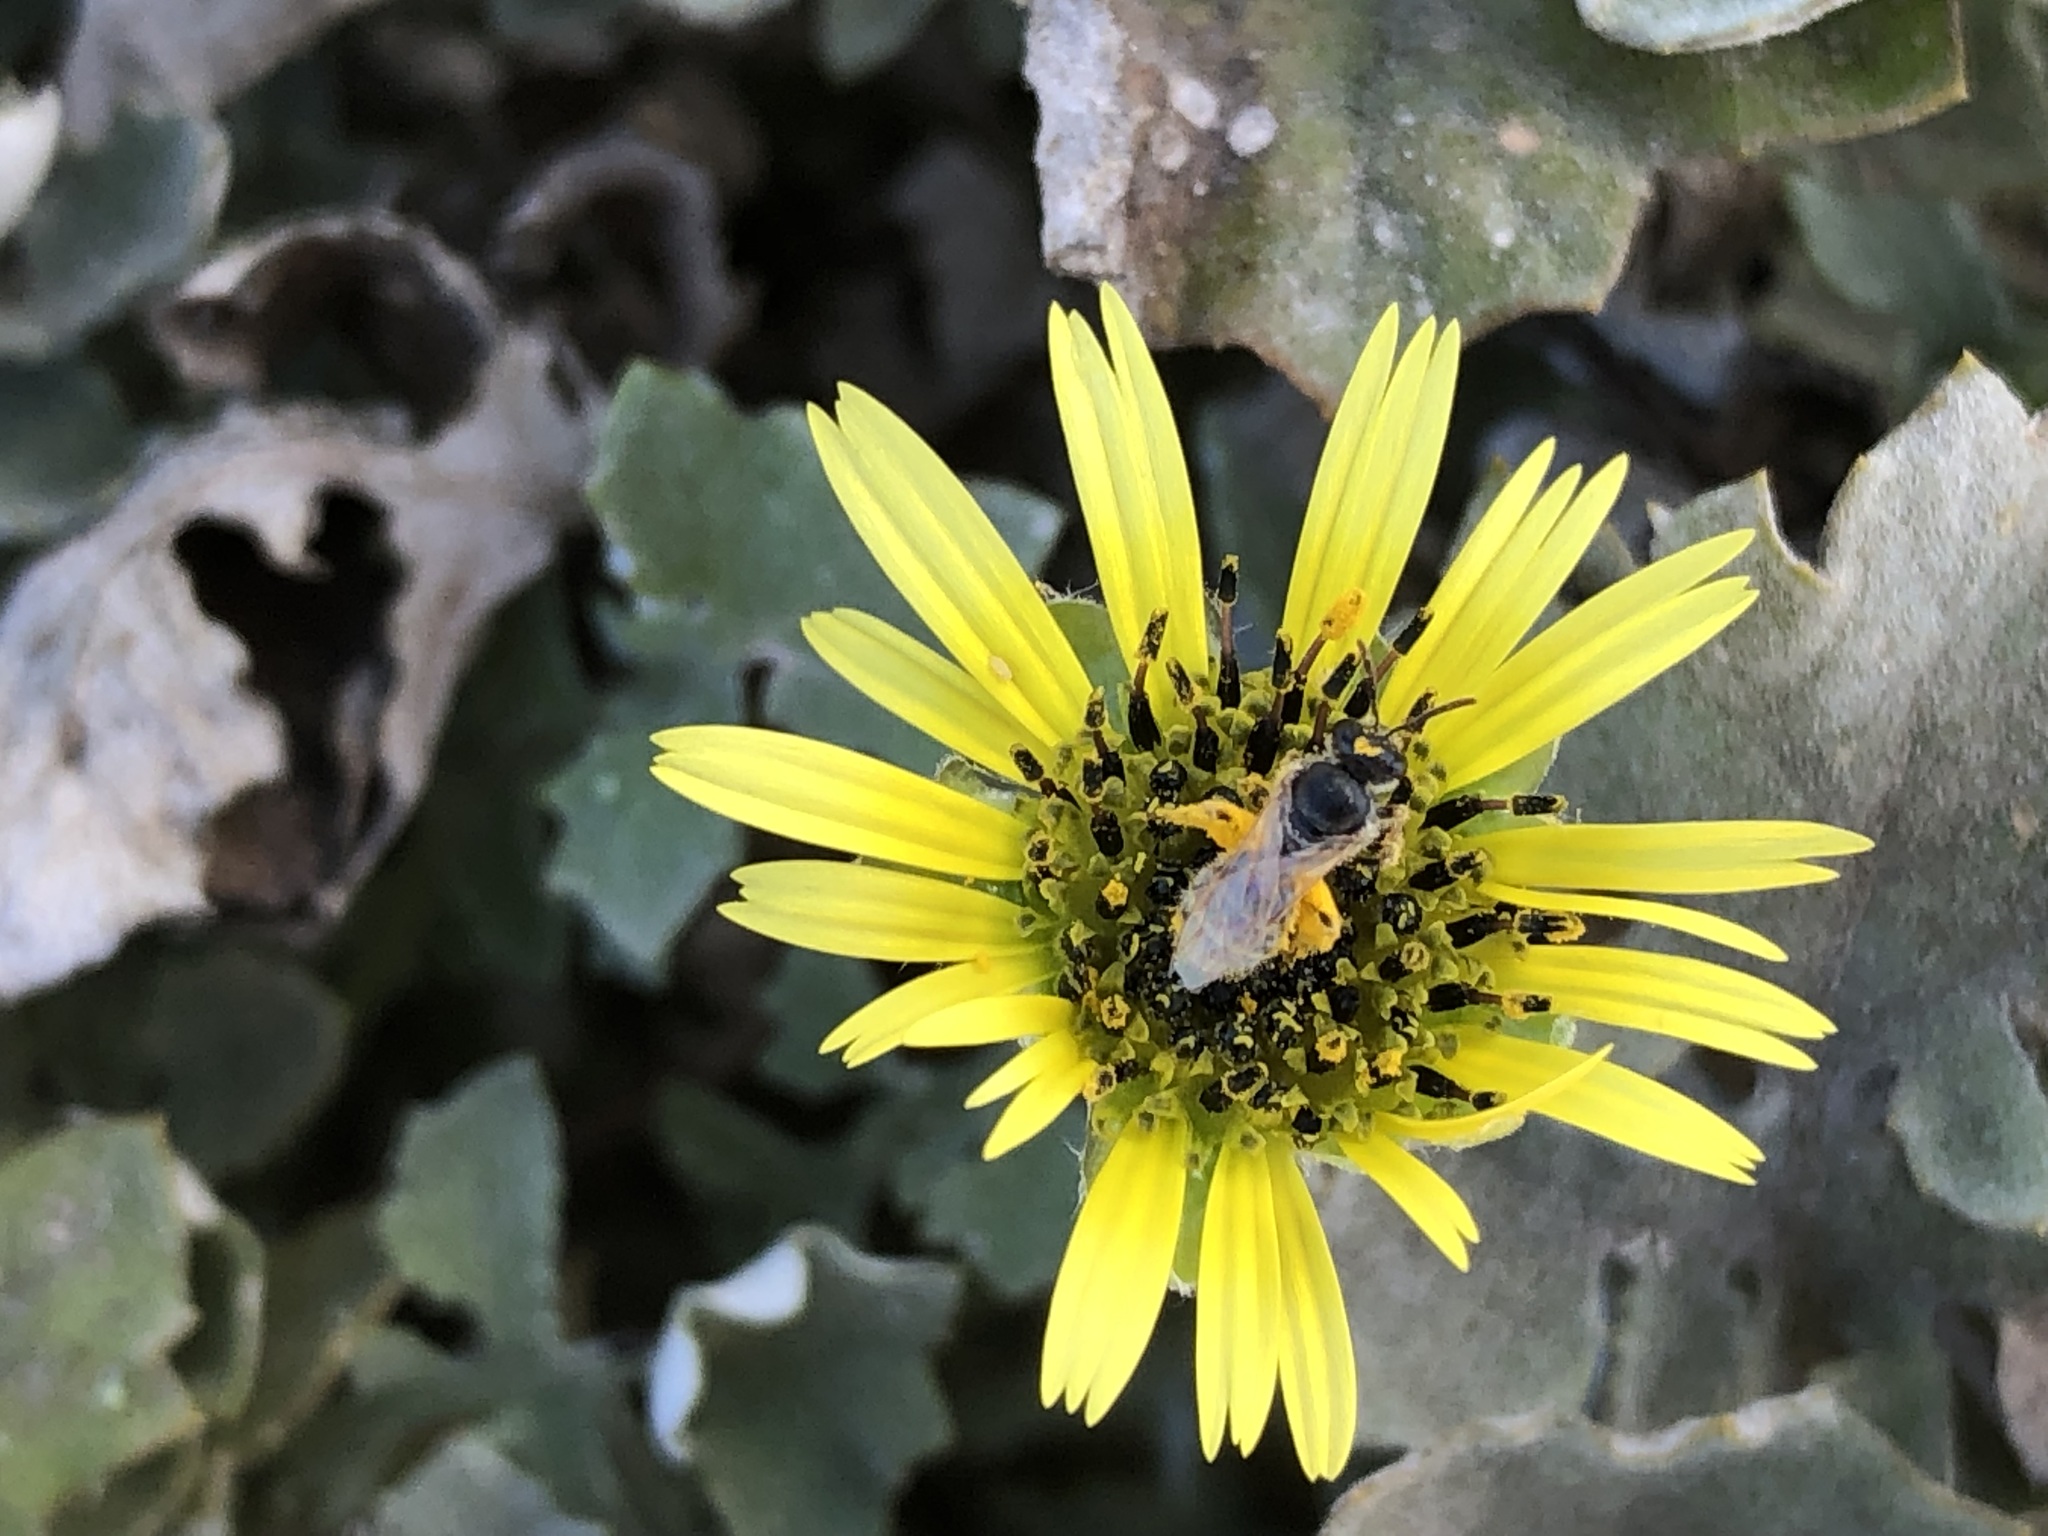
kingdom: Plantae
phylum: Tracheophyta
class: Magnoliopsida
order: Asterales
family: Asteraceae
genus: Arctotheca
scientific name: Arctotheca calendula
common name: Capeweed
